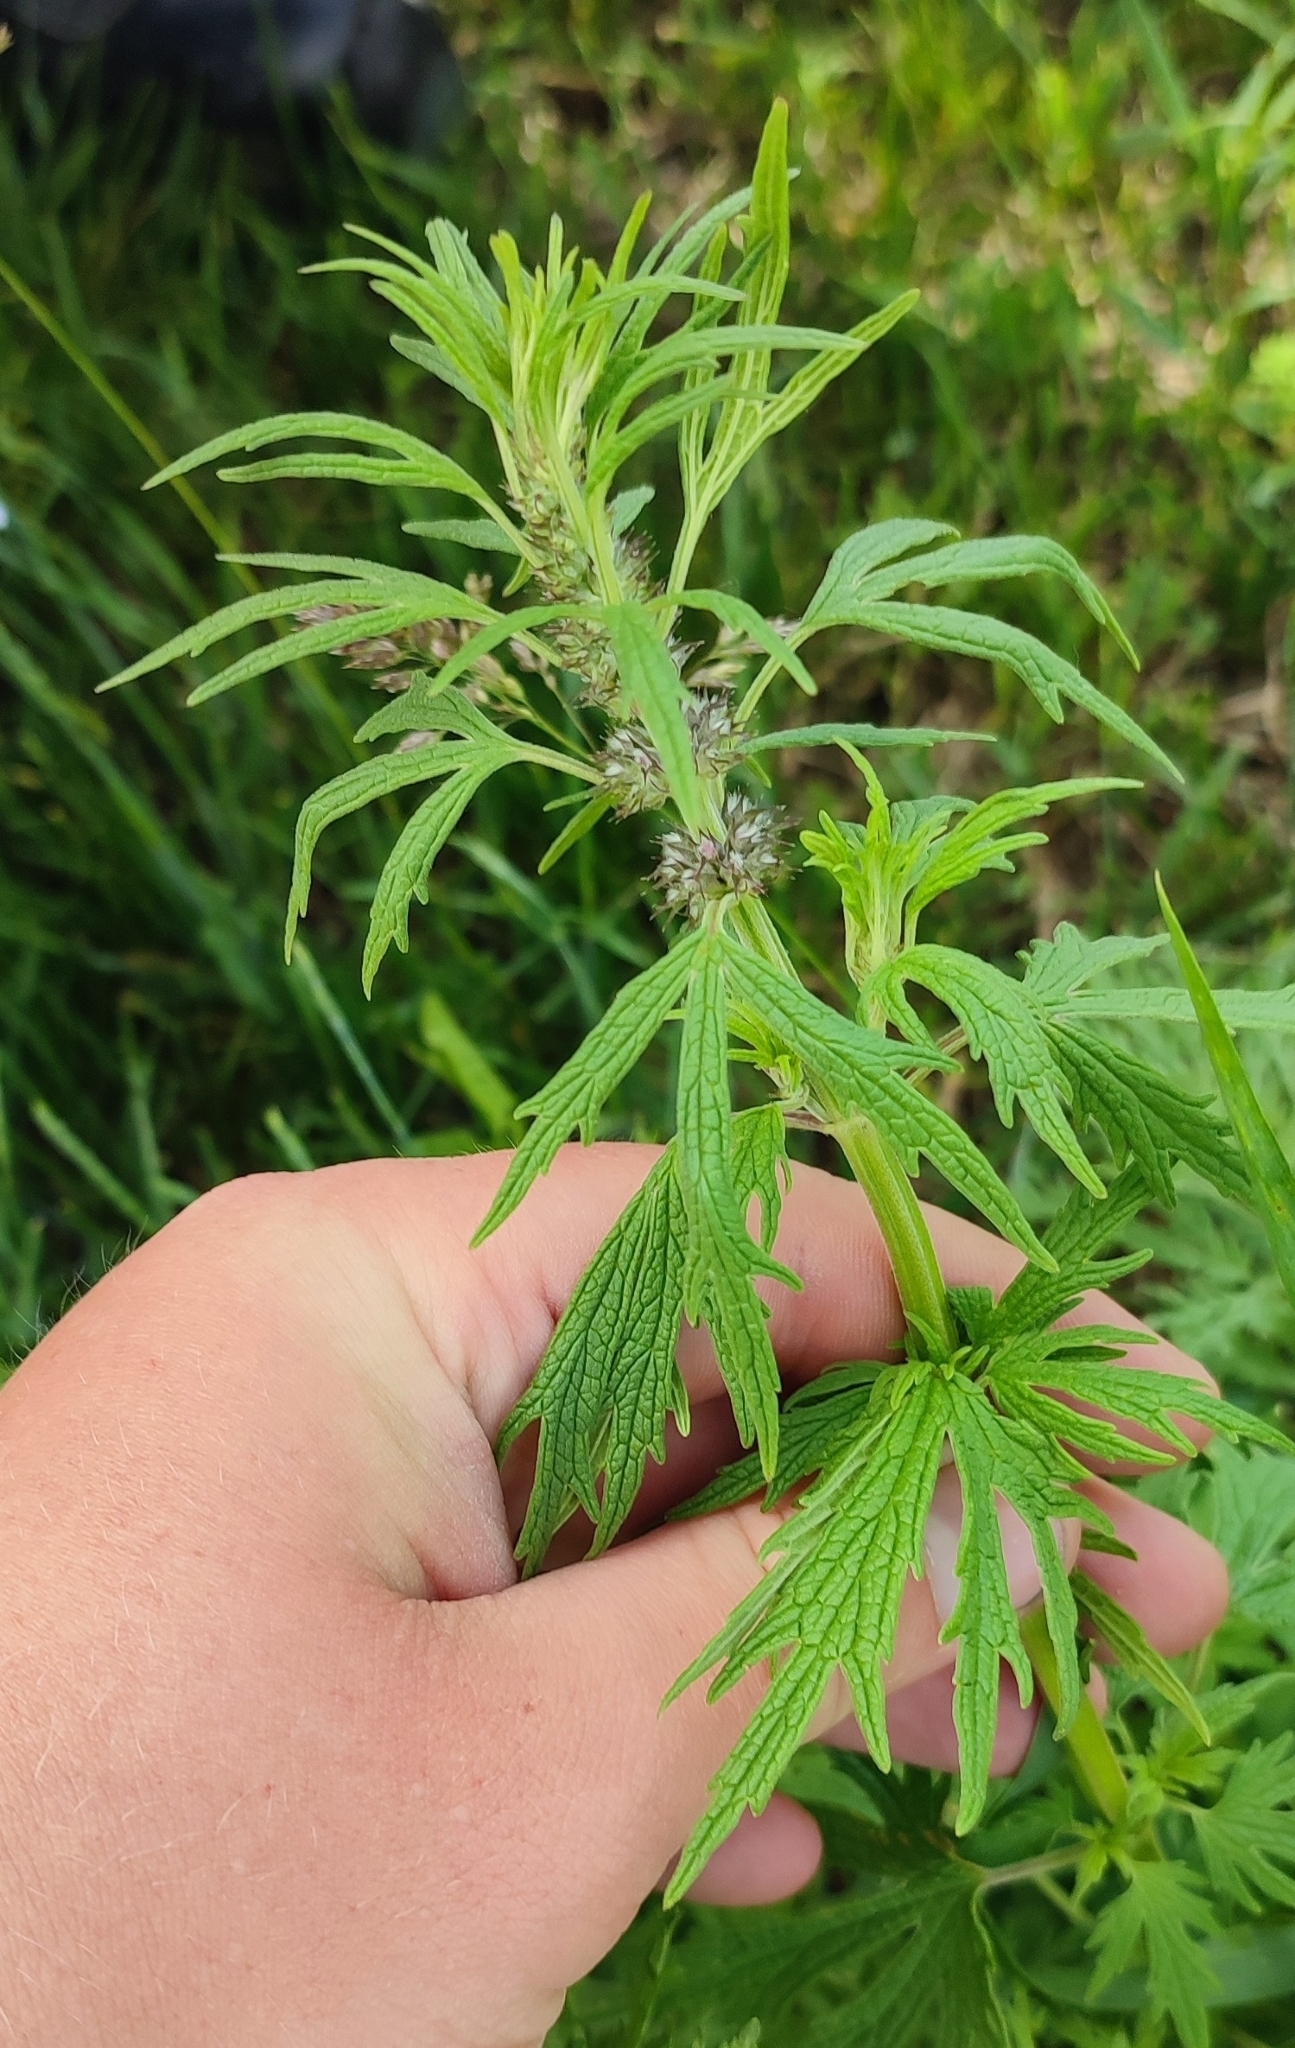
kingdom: Plantae
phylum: Tracheophyta
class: Magnoliopsida
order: Lamiales
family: Lamiaceae
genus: Leonurus
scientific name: Leonurus glaucescens
